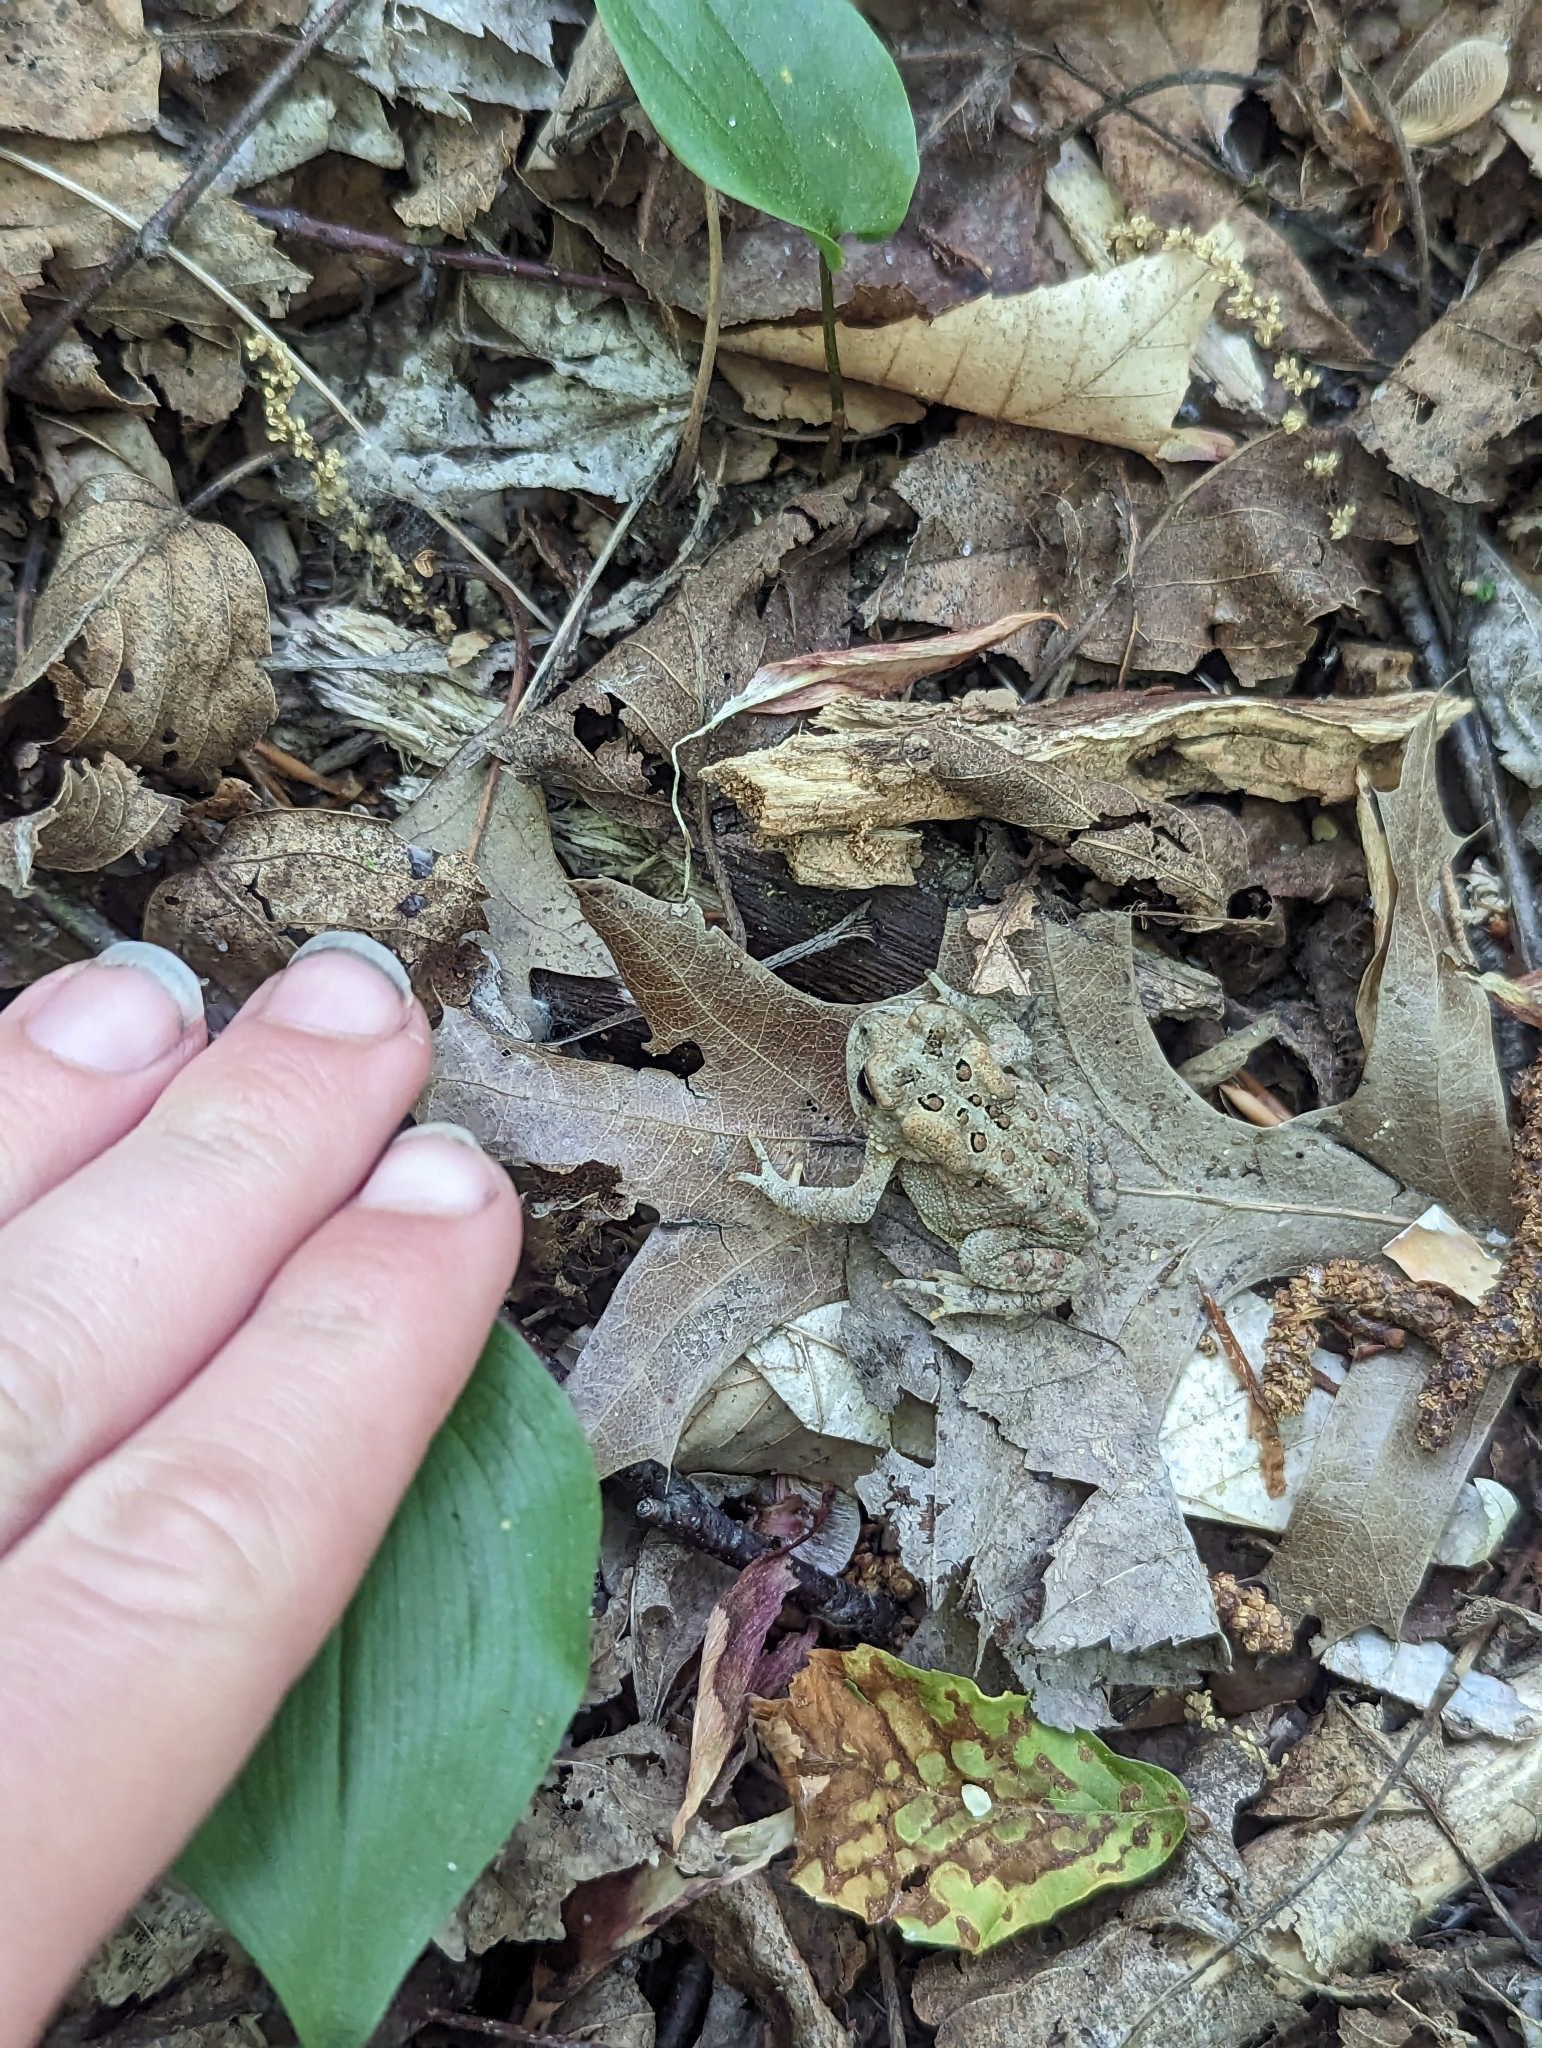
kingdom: Animalia
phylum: Chordata
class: Amphibia
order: Anura
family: Bufonidae
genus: Anaxyrus
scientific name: Anaxyrus americanus
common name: American toad
